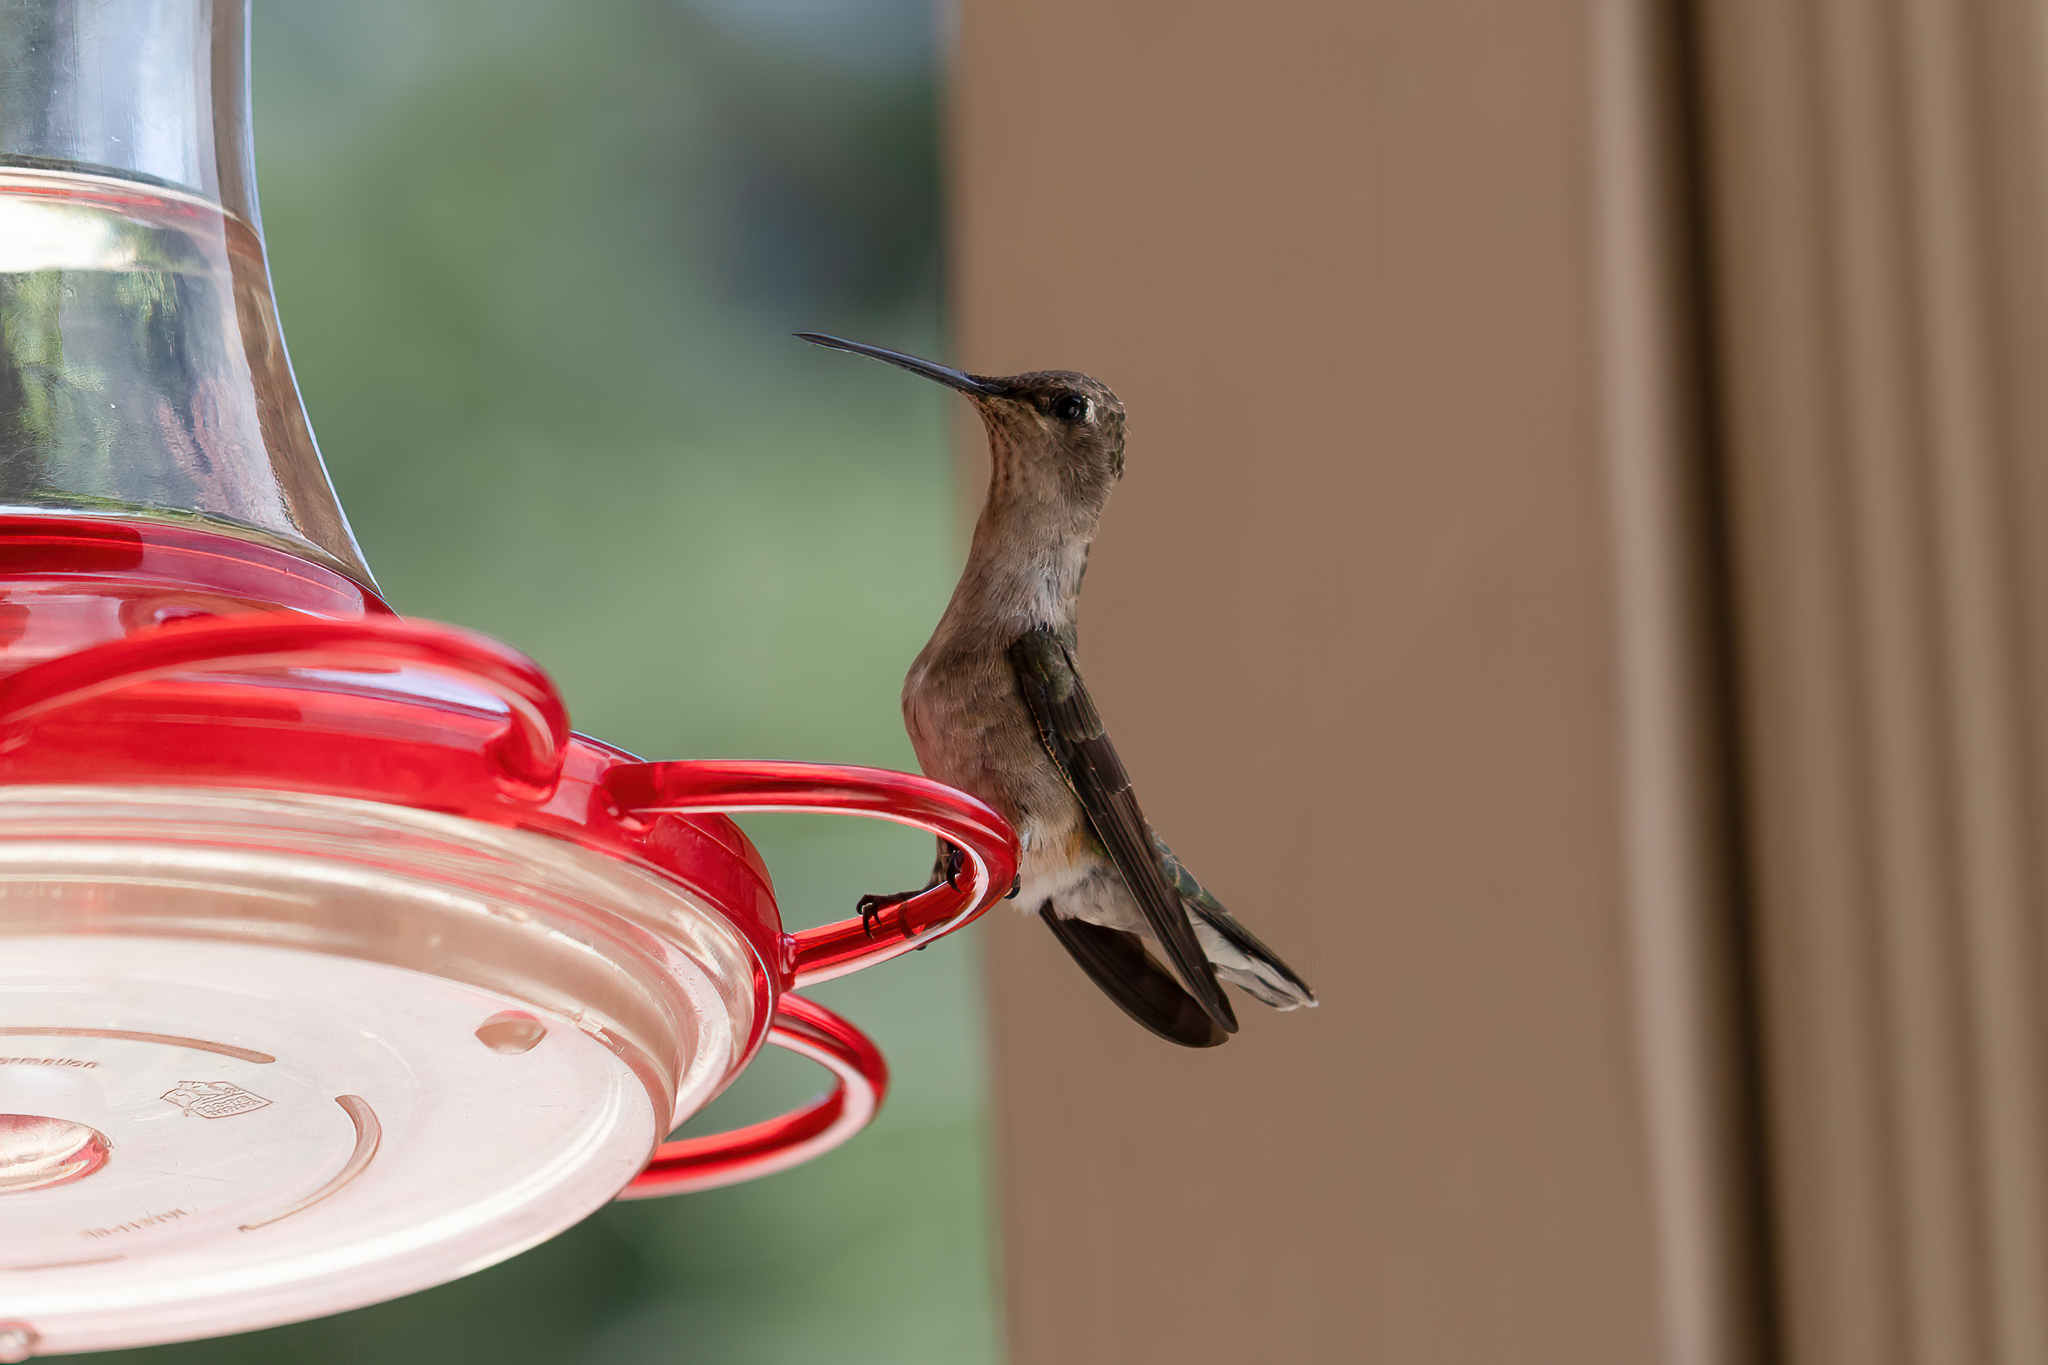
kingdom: Animalia
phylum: Chordata
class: Aves
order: Apodiformes
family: Trochilidae
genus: Archilochus
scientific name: Archilochus alexandri
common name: Black-chinned hummingbird
